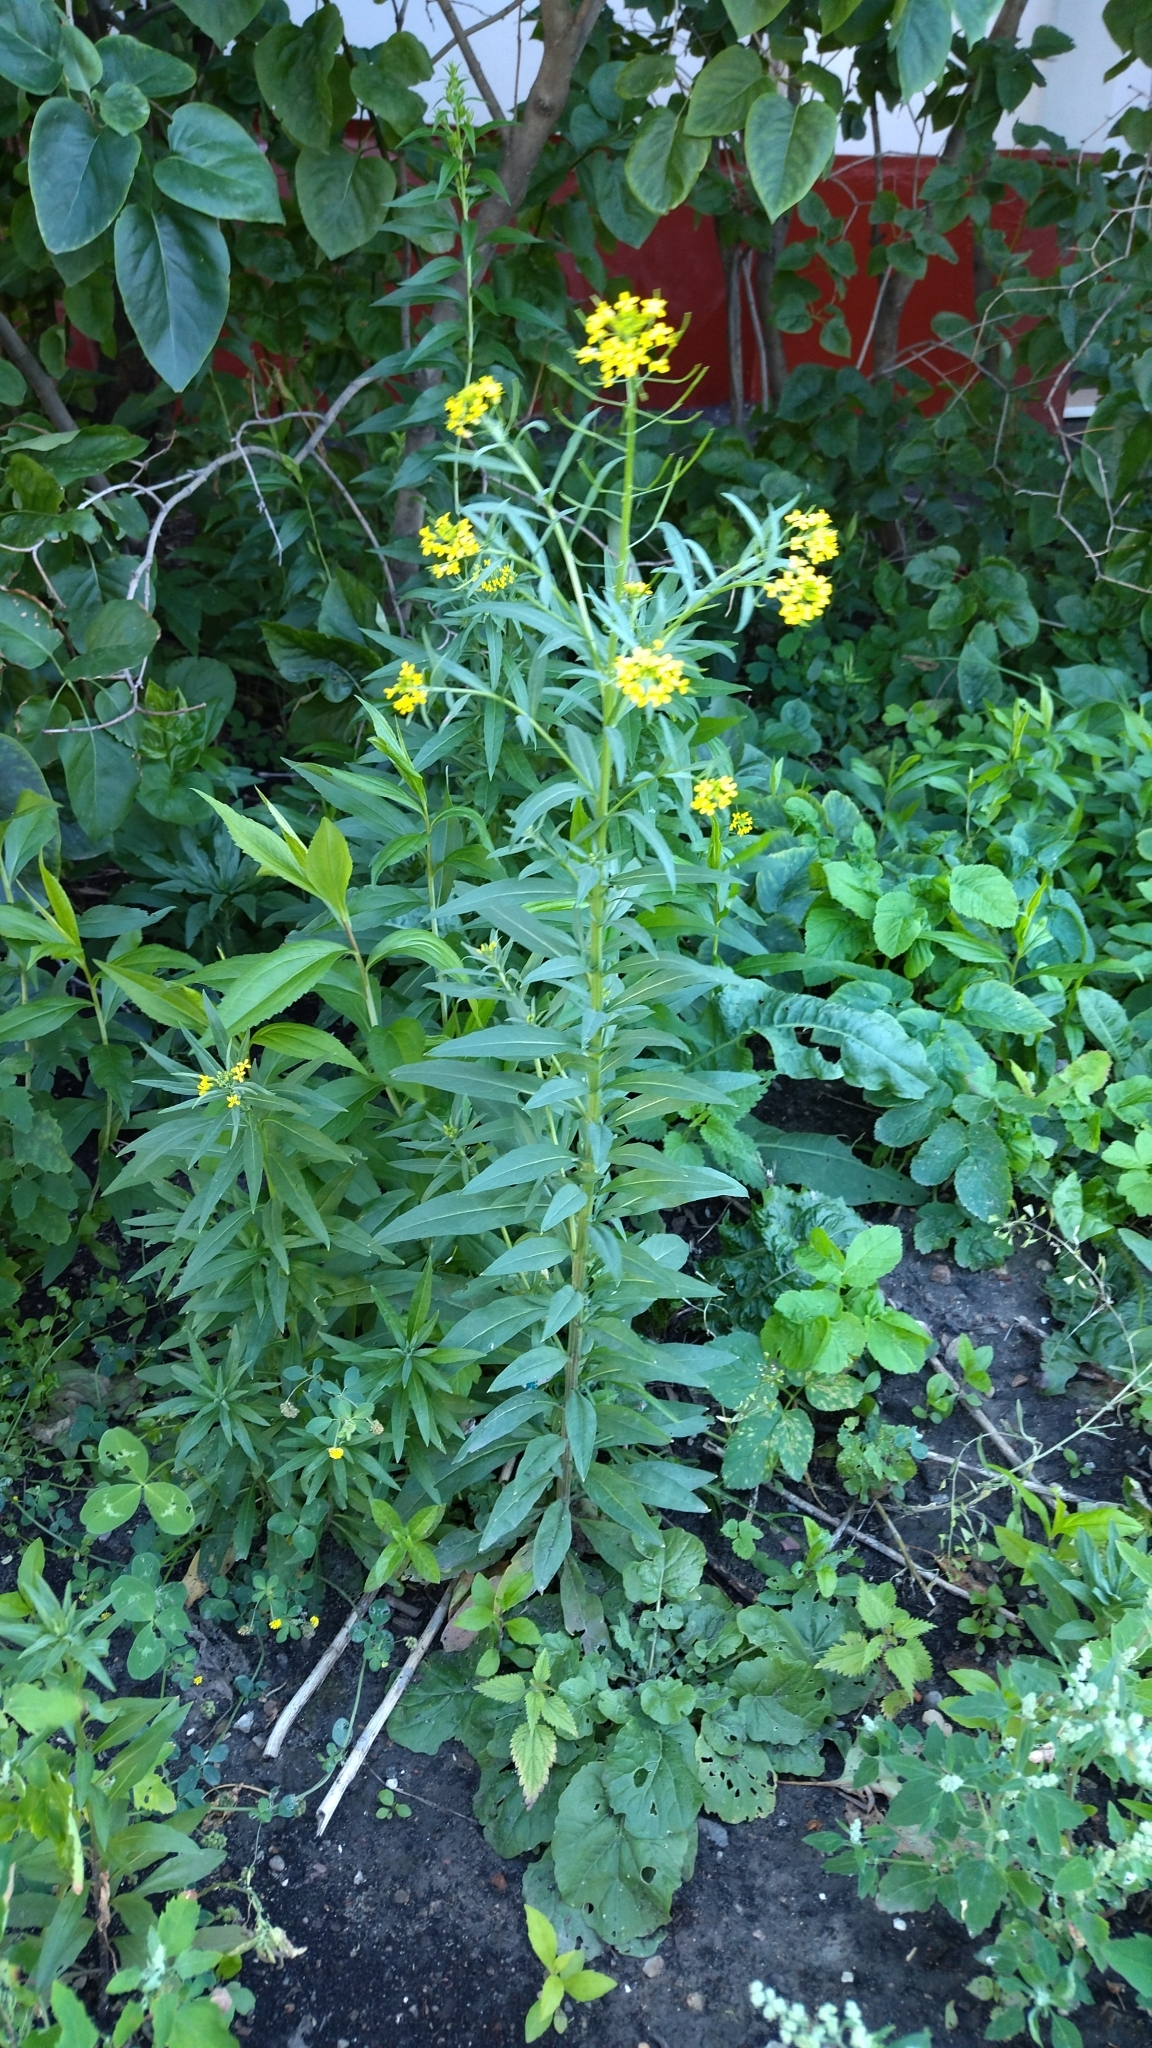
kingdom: Plantae
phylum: Tracheophyta
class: Magnoliopsida
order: Brassicales
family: Brassicaceae
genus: Erysimum
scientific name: Erysimum cheiranthoides
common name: Treacle mustard
